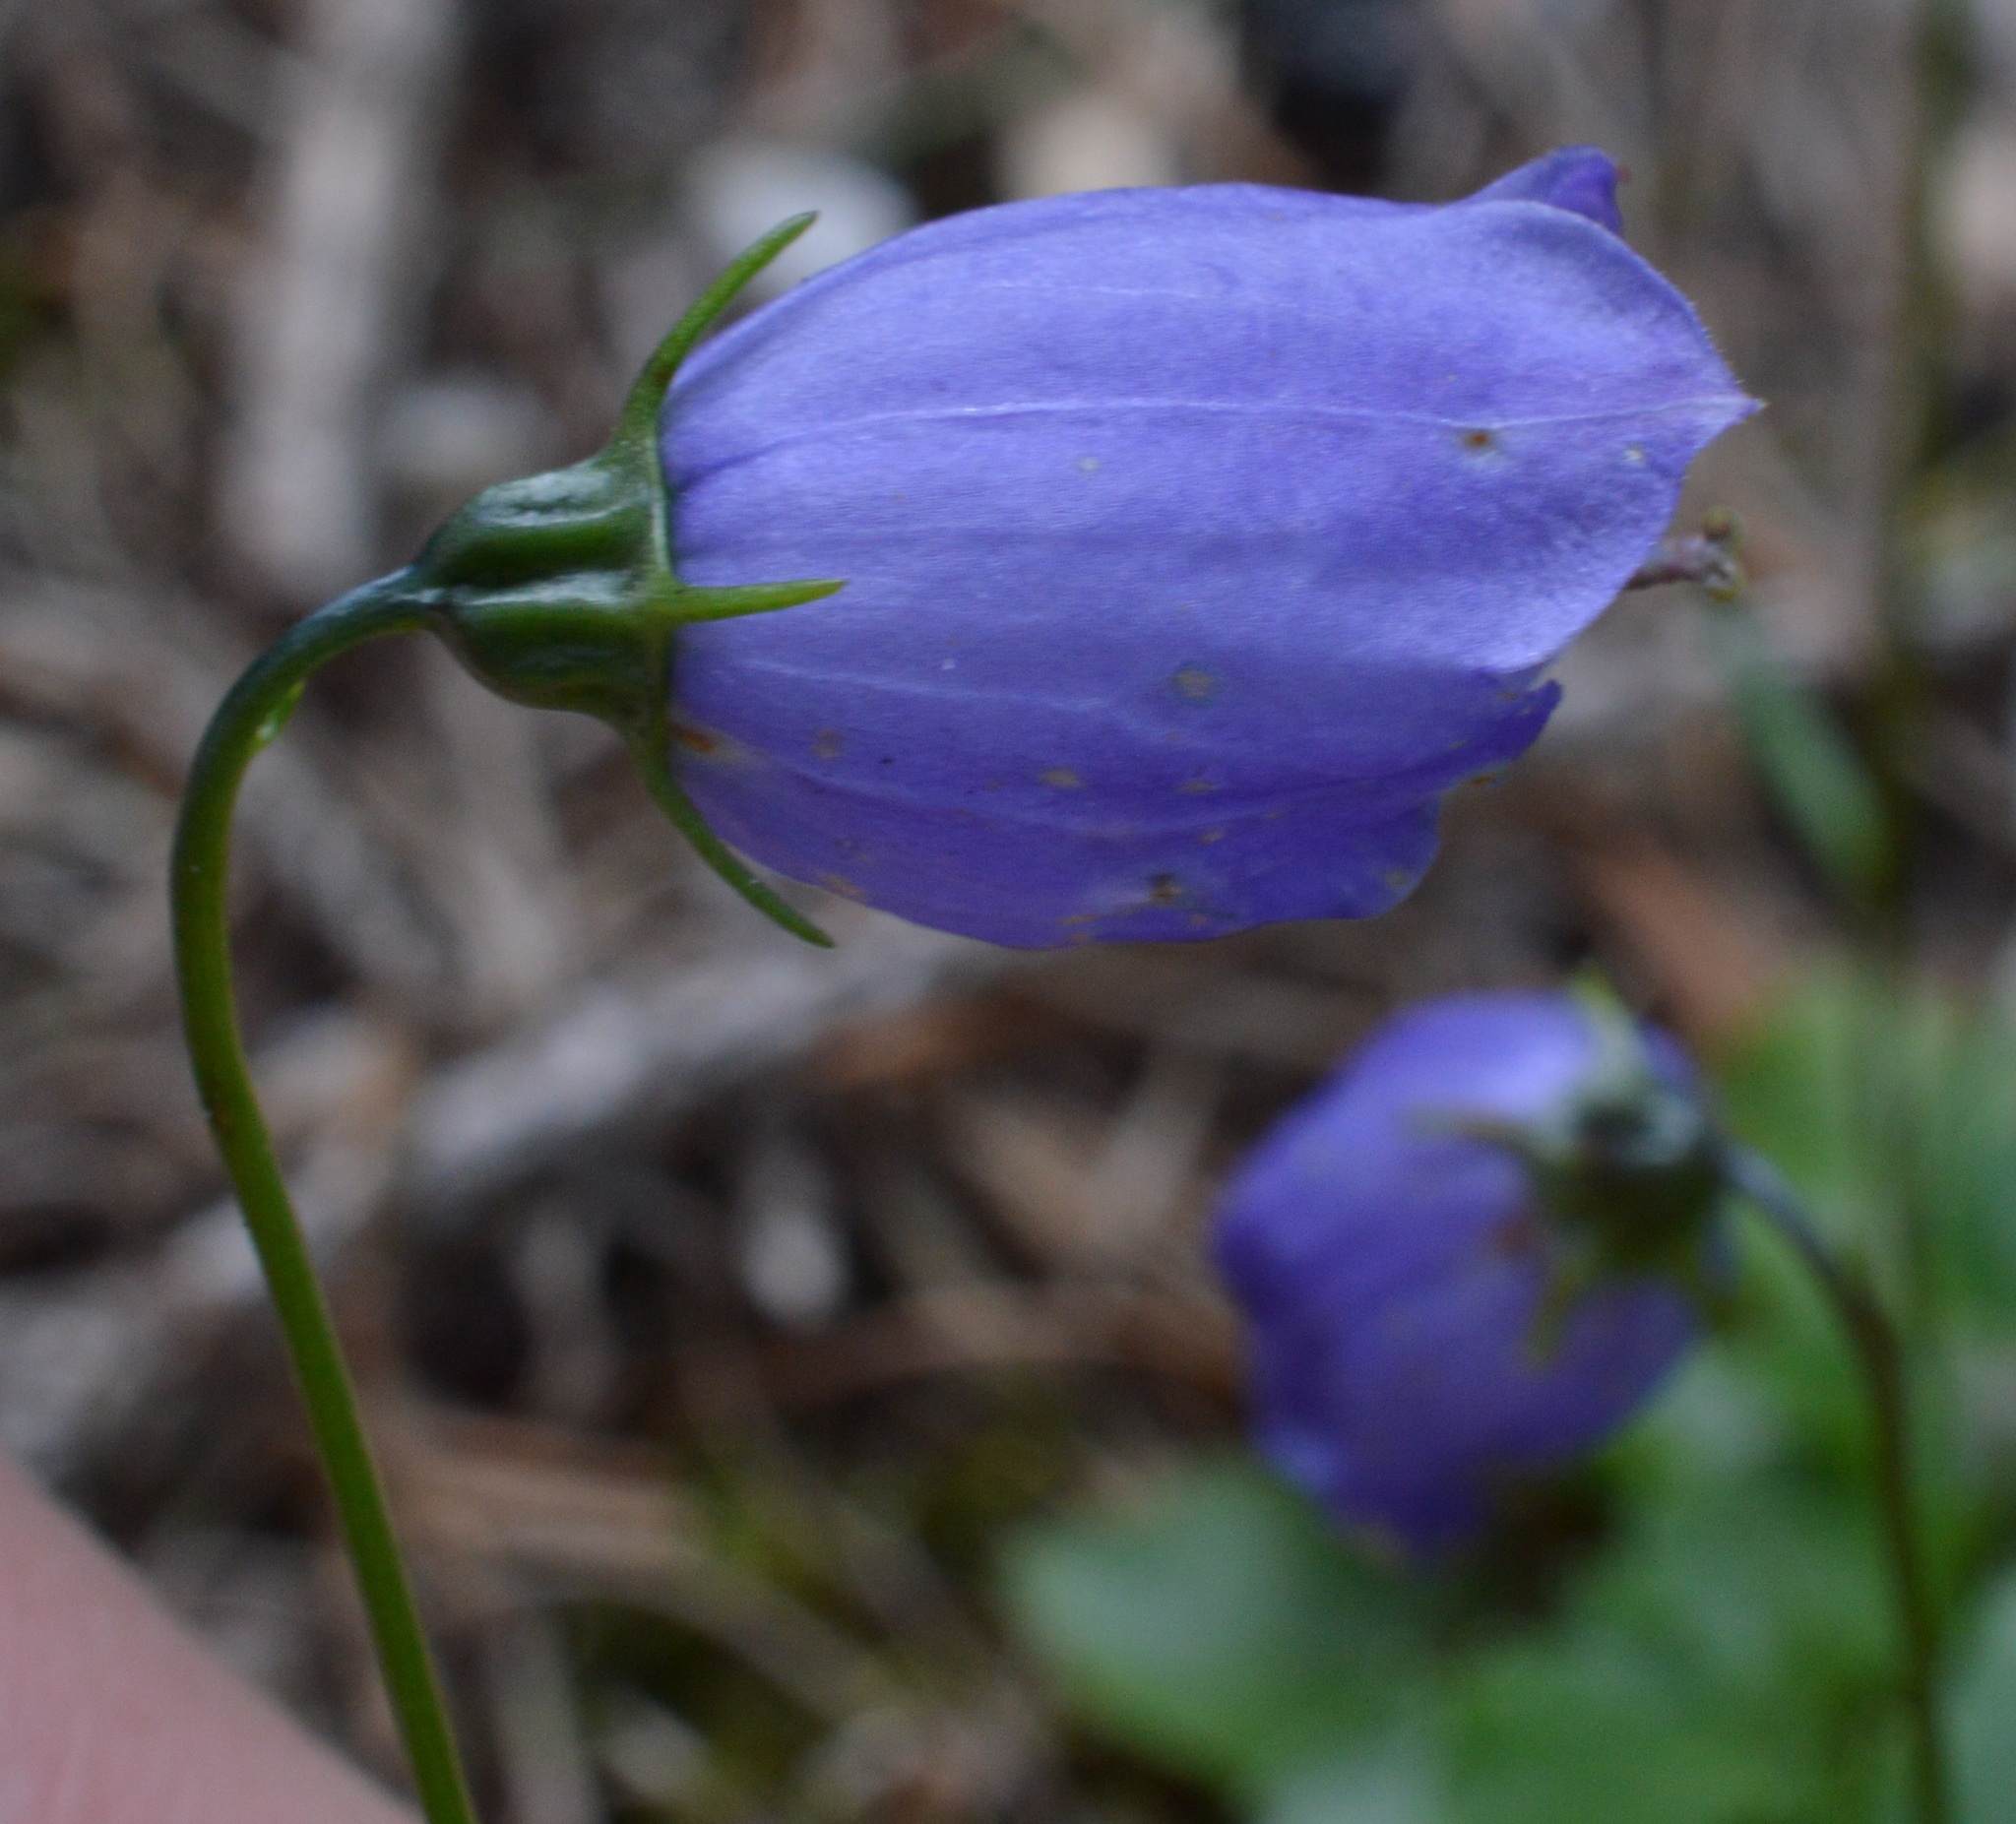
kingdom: Plantae
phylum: Tracheophyta
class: Magnoliopsida
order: Asterales
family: Campanulaceae
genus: Campanula
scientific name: Campanula cochleariifolia
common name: Fairies'-thimbles
